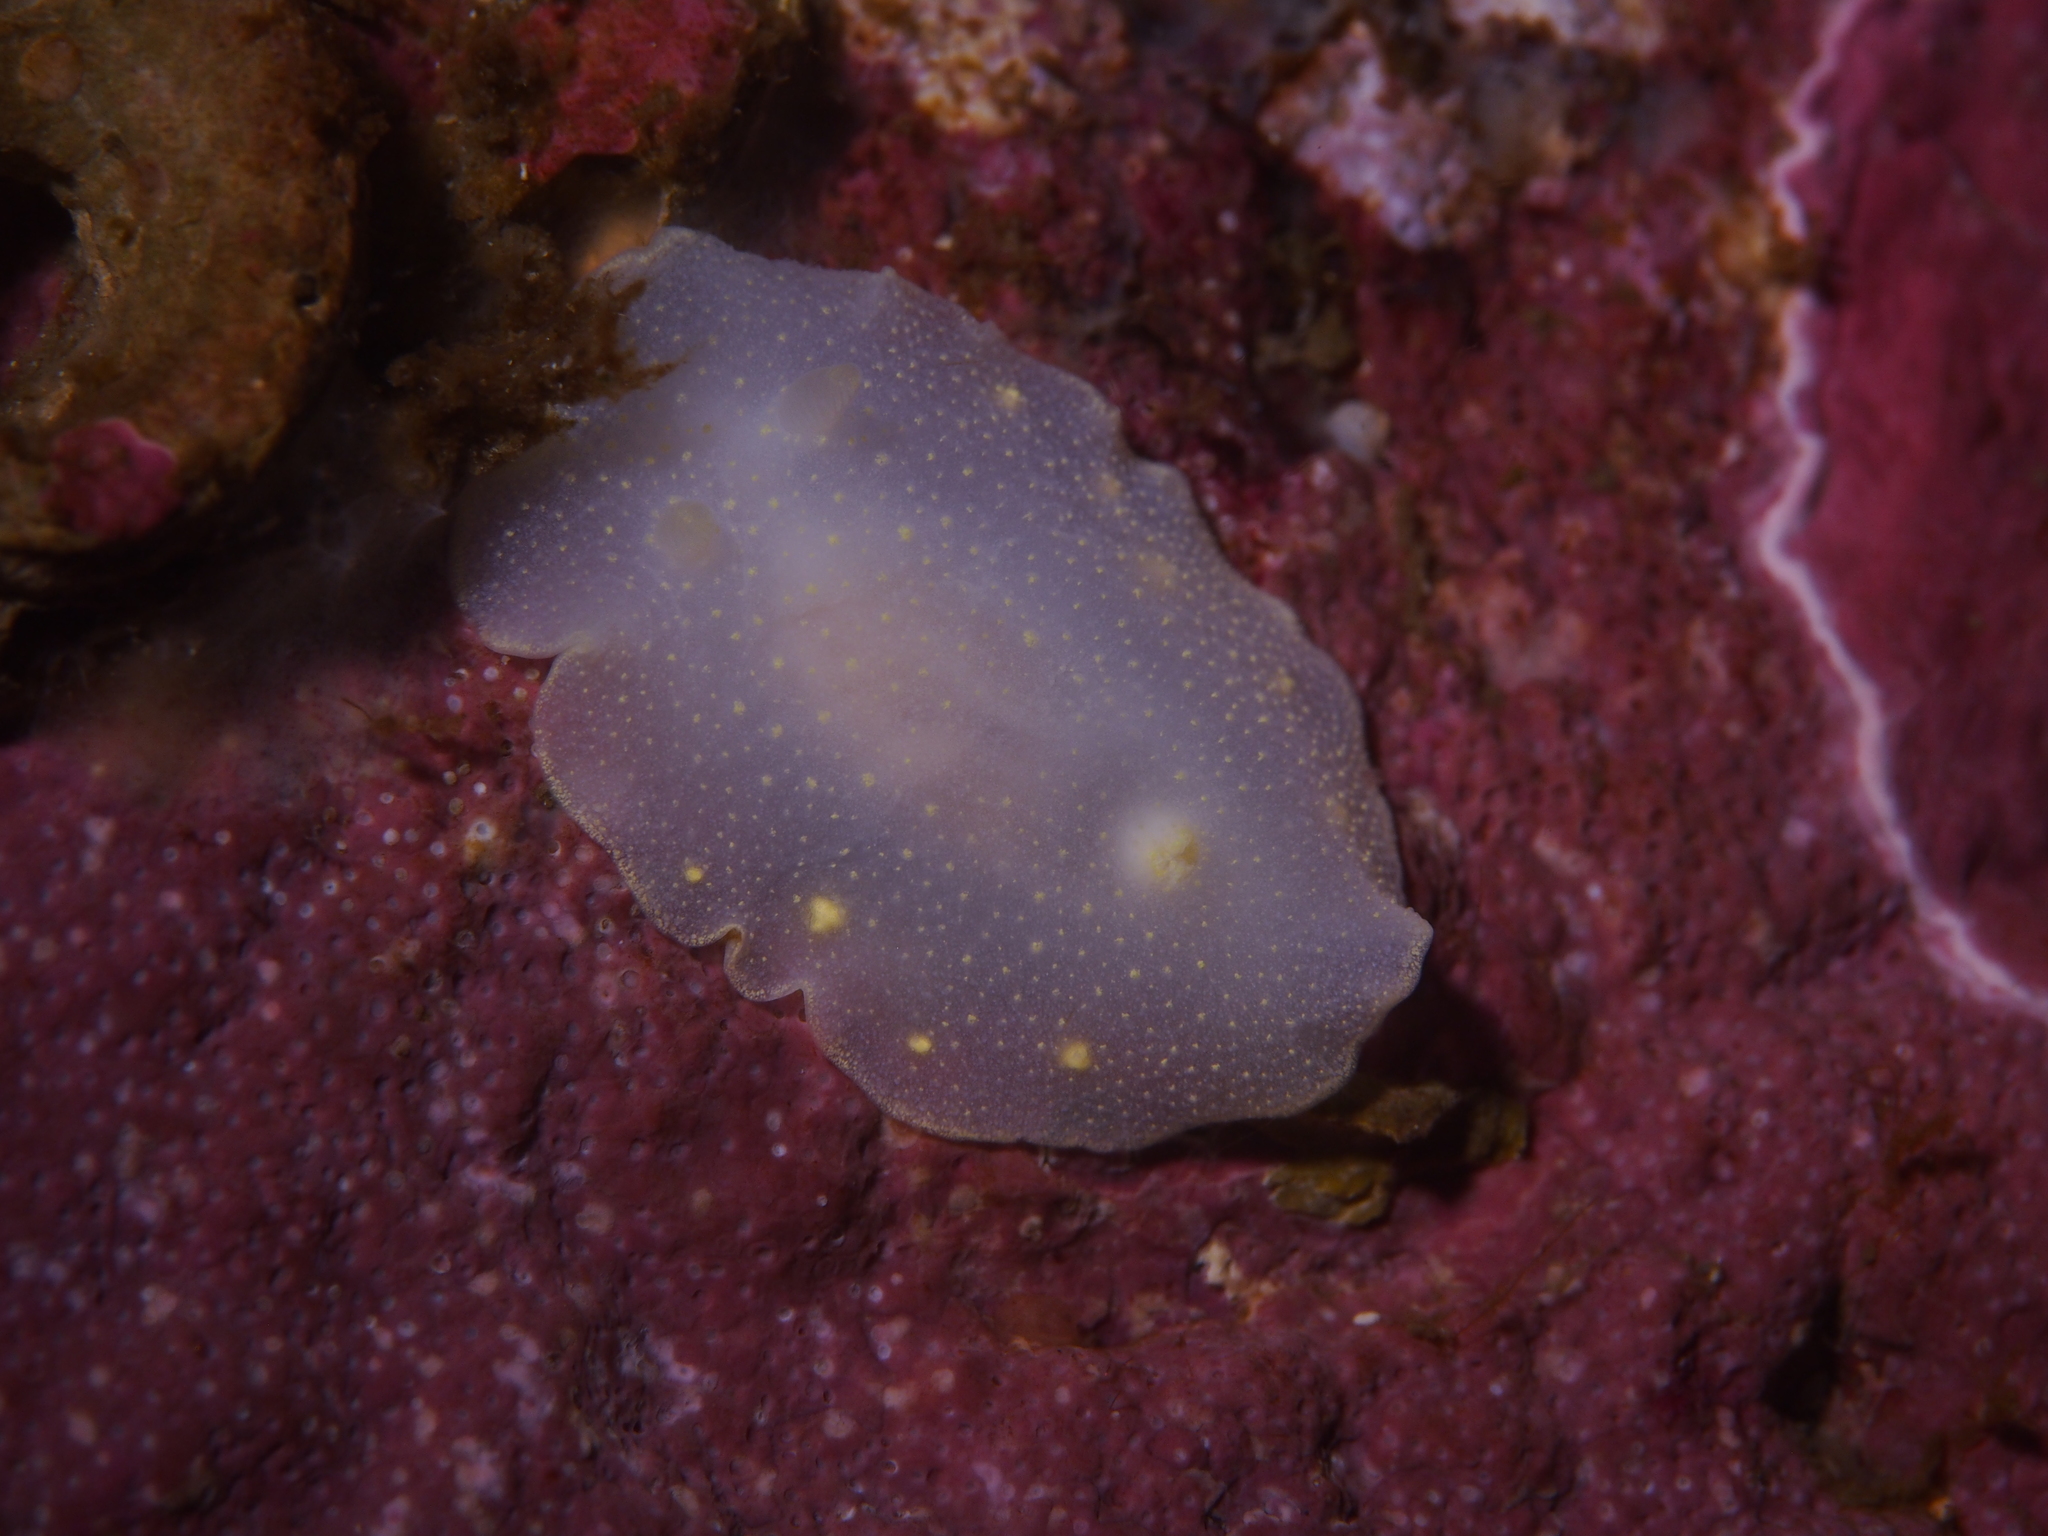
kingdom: Animalia
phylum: Mollusca
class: Gastropoda
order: Nudibranchia
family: Cadlinidae
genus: Cadlina
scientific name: Cadlina laevis
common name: White atlantic cadlina
